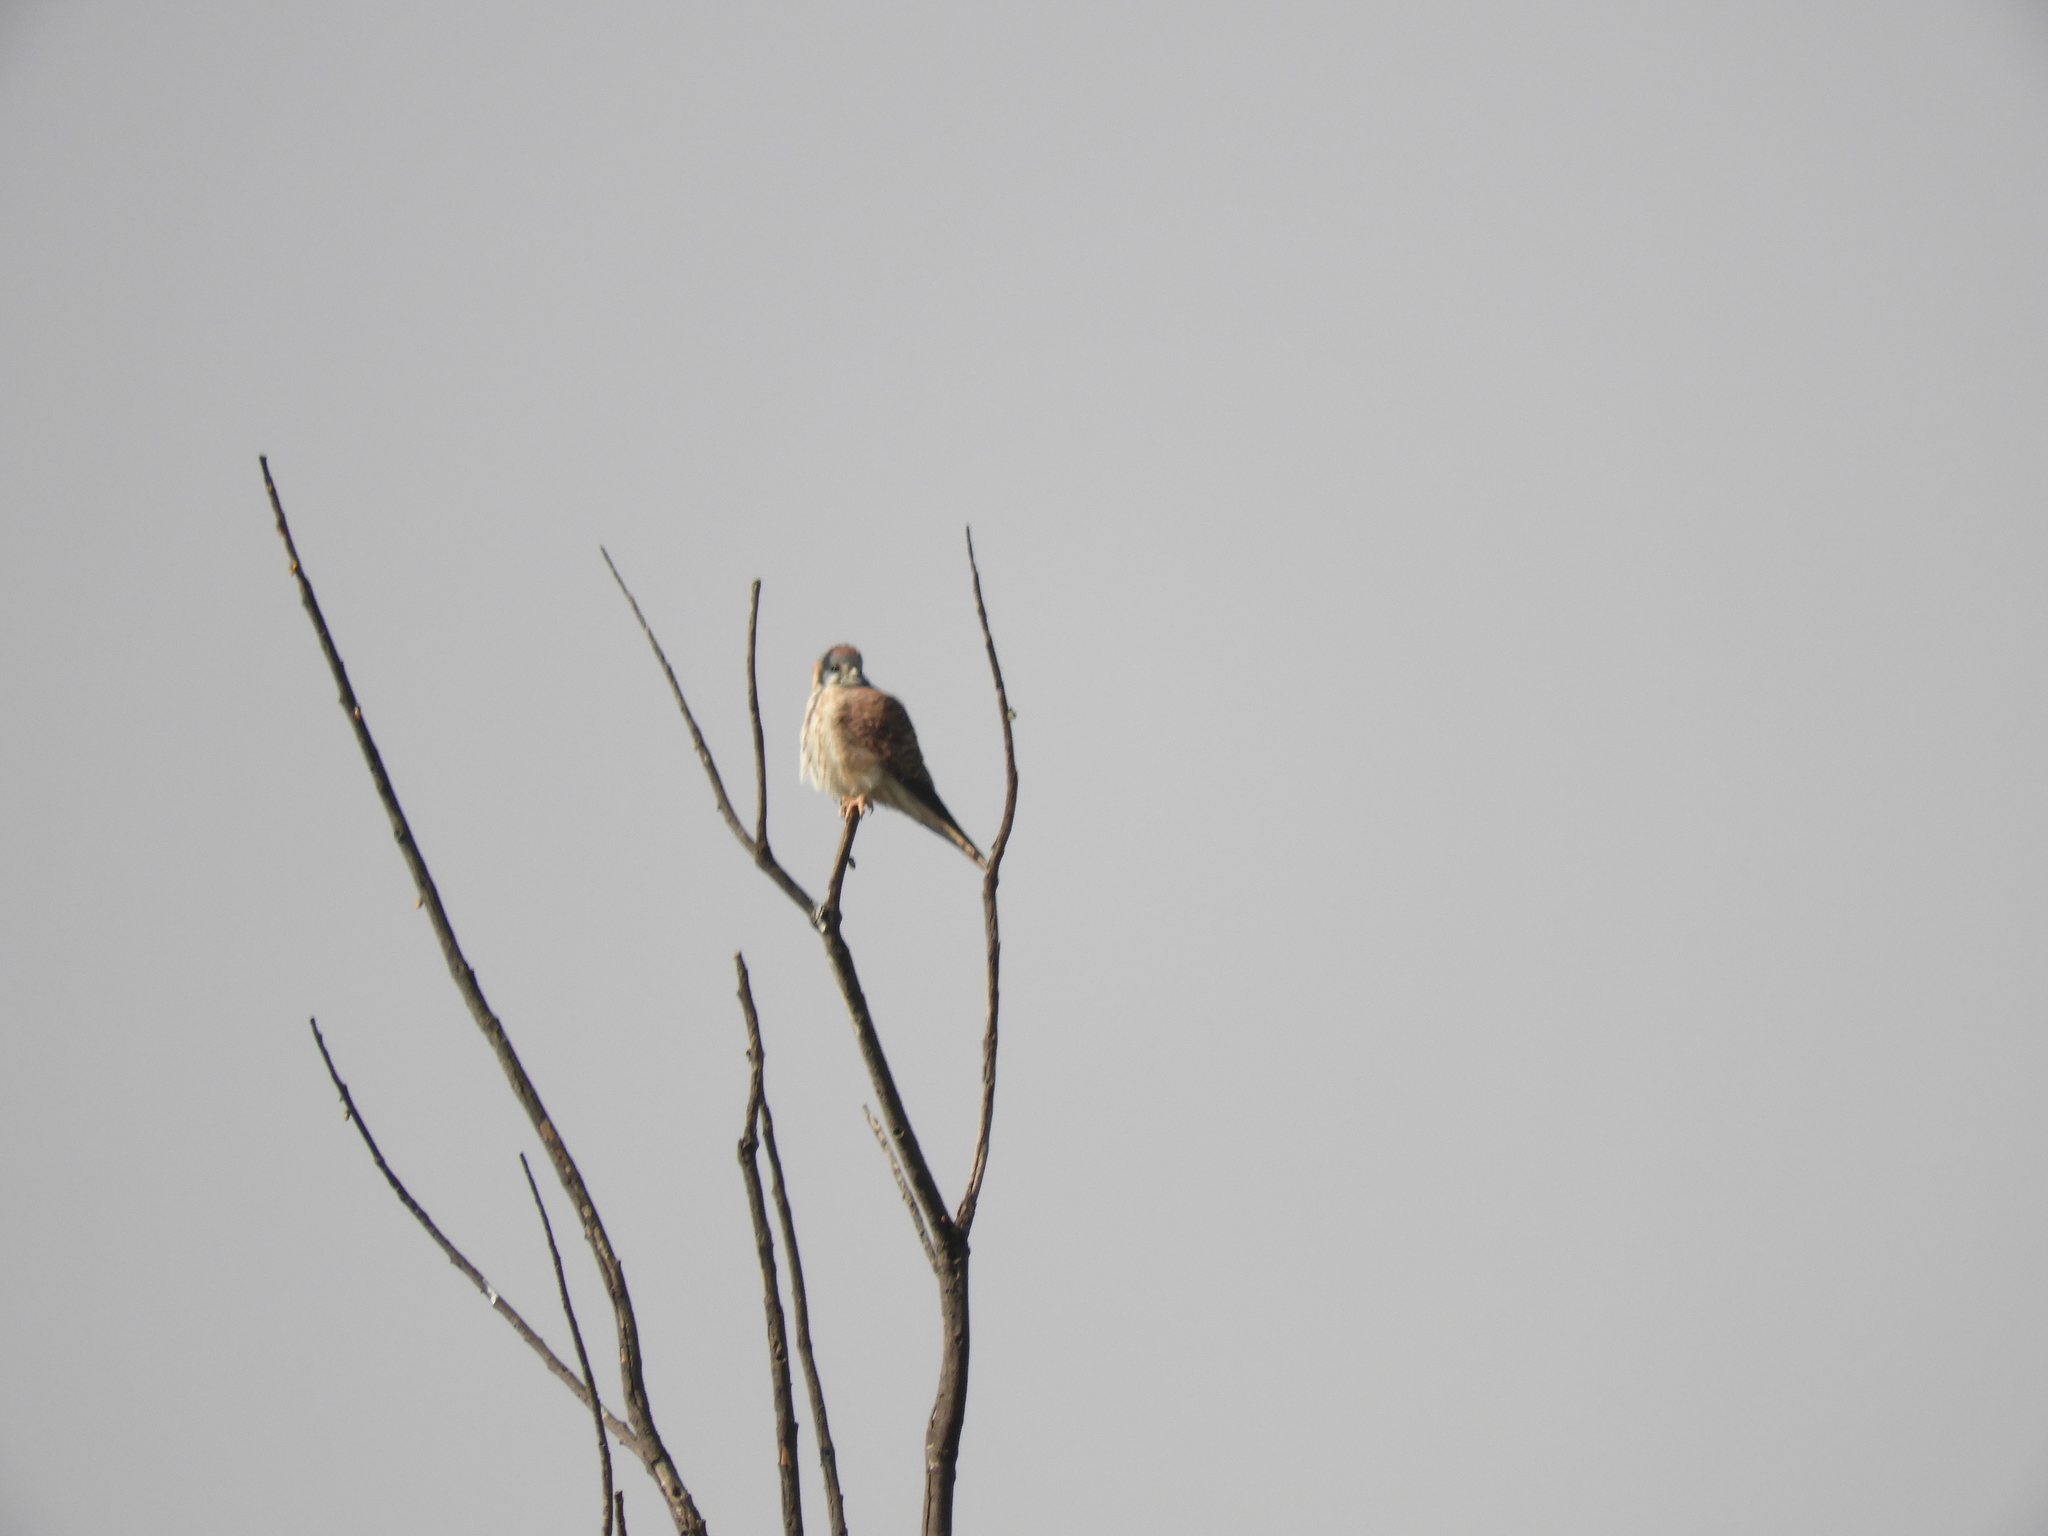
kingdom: Animalia
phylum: Chordata
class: Aves
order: Falconiformes
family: Falconidae
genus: Falco
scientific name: Falco sparverius
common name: American kestrel
